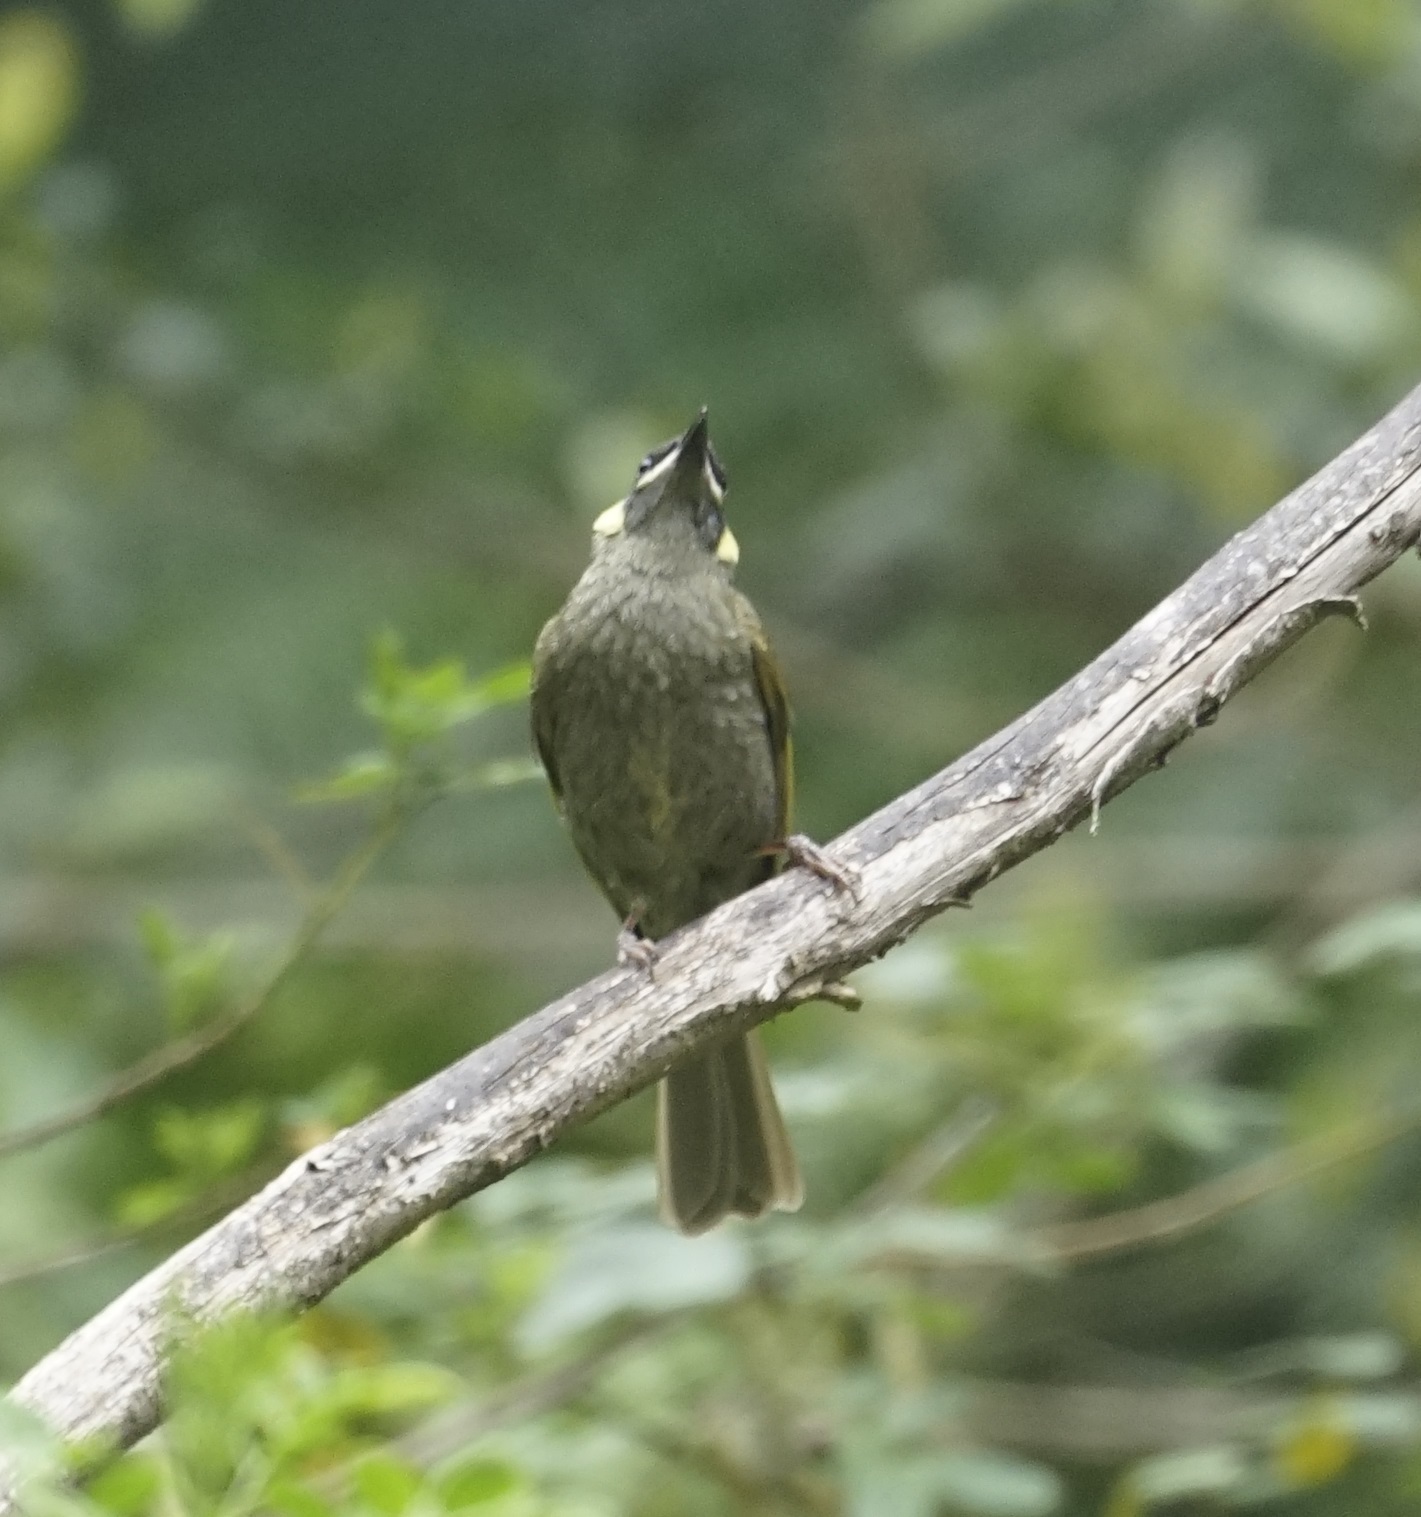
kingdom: Animalia
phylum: Chordata
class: Aves
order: Passeriformes
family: Meliphagidae
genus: Meliphaga
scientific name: Meliphaga lewinii
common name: Lewin's honeyeater
